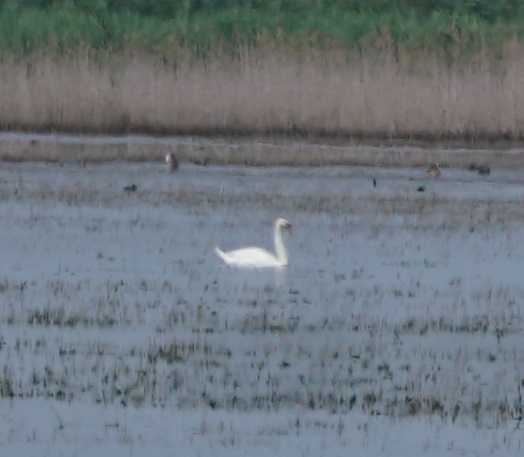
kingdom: Animalia
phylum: Chordata
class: Aves
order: Anseriformes
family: Anatidae
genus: Cygnus
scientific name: Cygnus olor
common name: Mute swan
